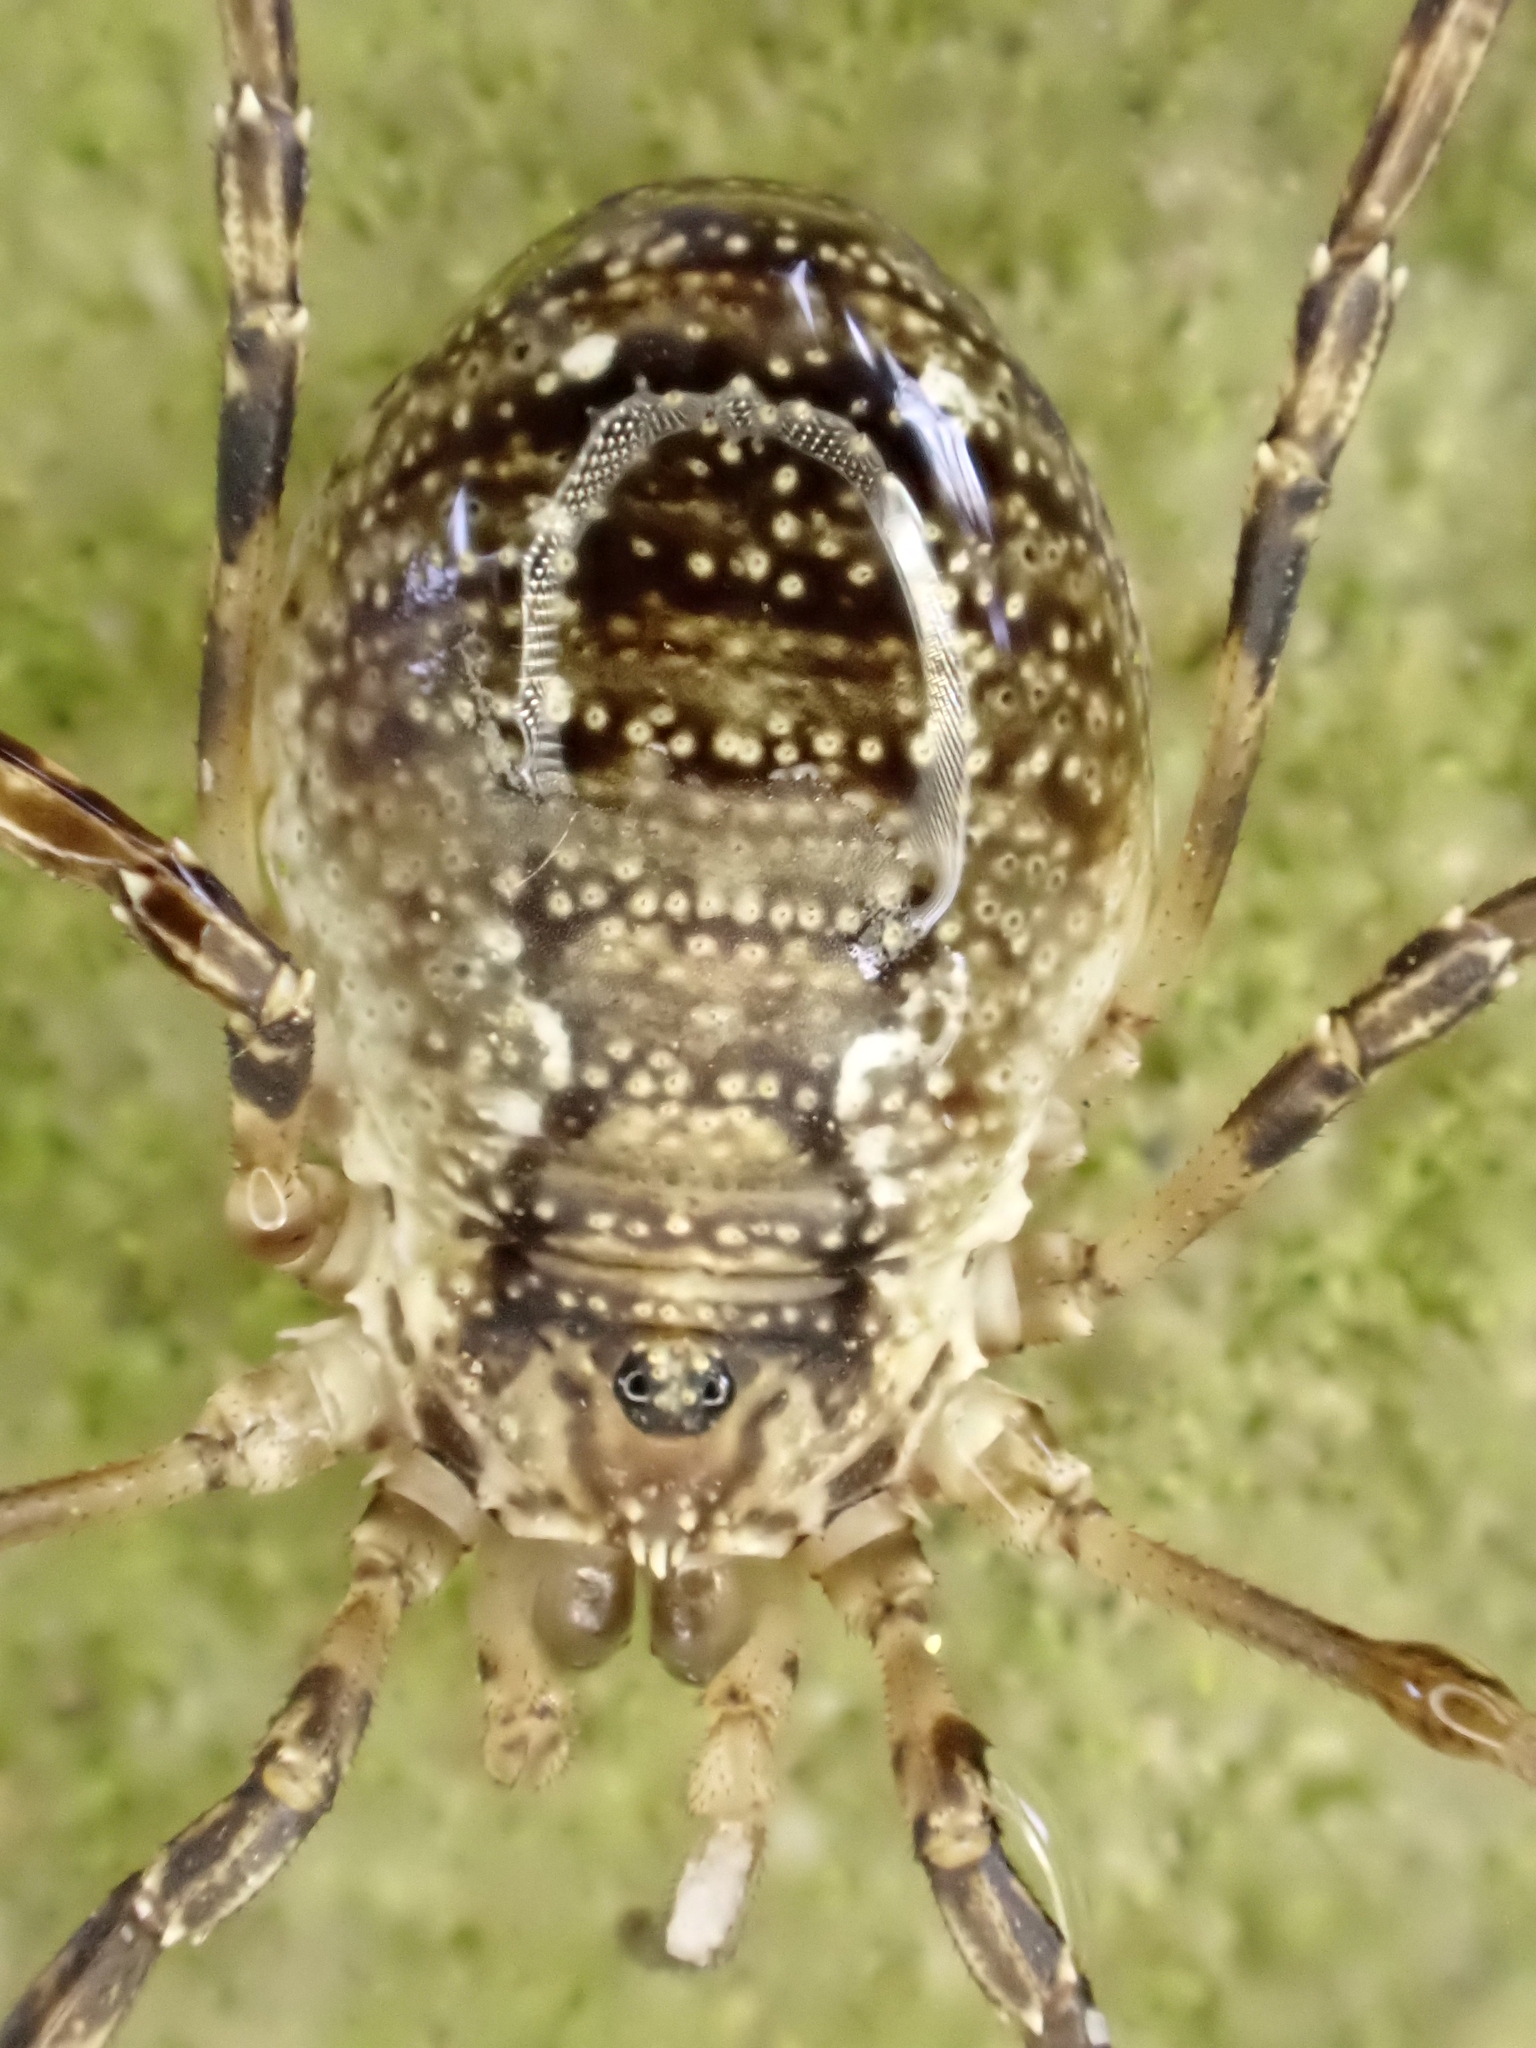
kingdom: Animalia
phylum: Arthropoda
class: Arachnida
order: Opiliones
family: Phalangiidae
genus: Oligolophus
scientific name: Oligolophus hansenii
